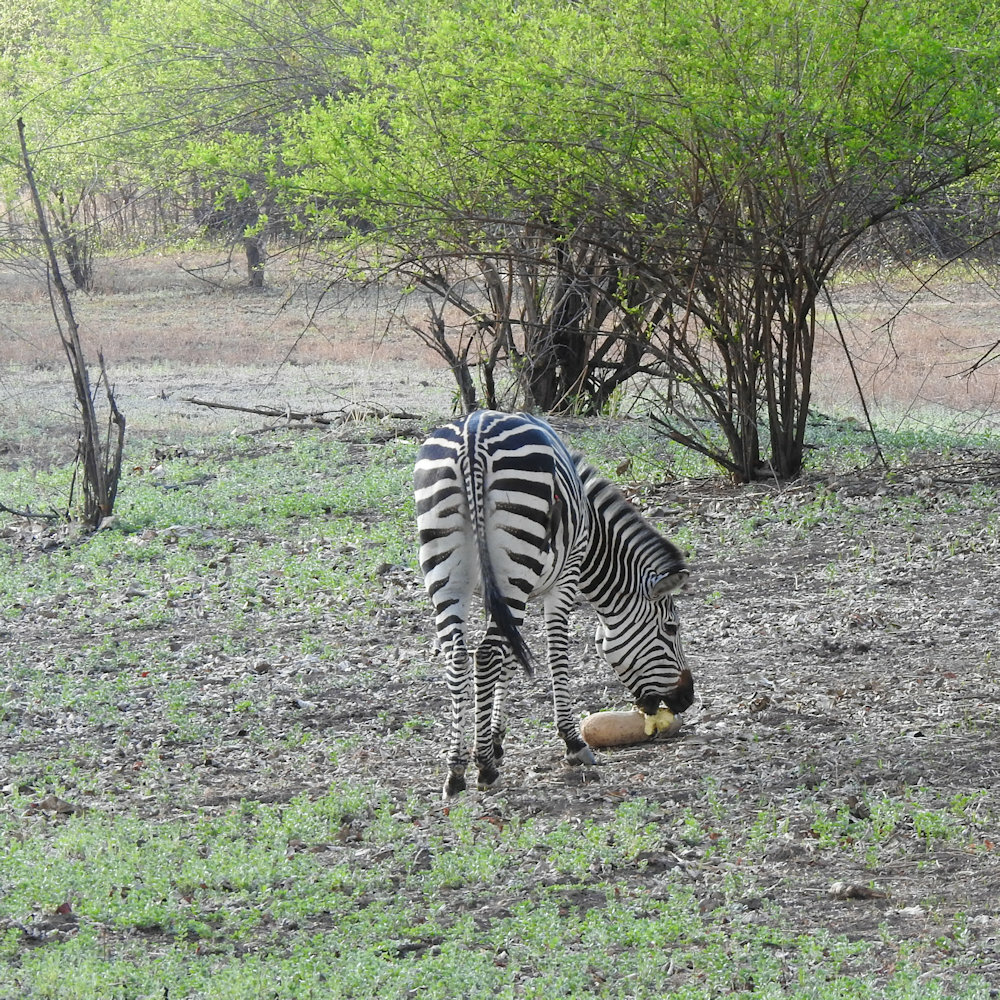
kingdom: Animalia
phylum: Chordata
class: Mammalia
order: Perissodactyla
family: Equidae
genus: Equus
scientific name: Equus quagga
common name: Plains zebra
